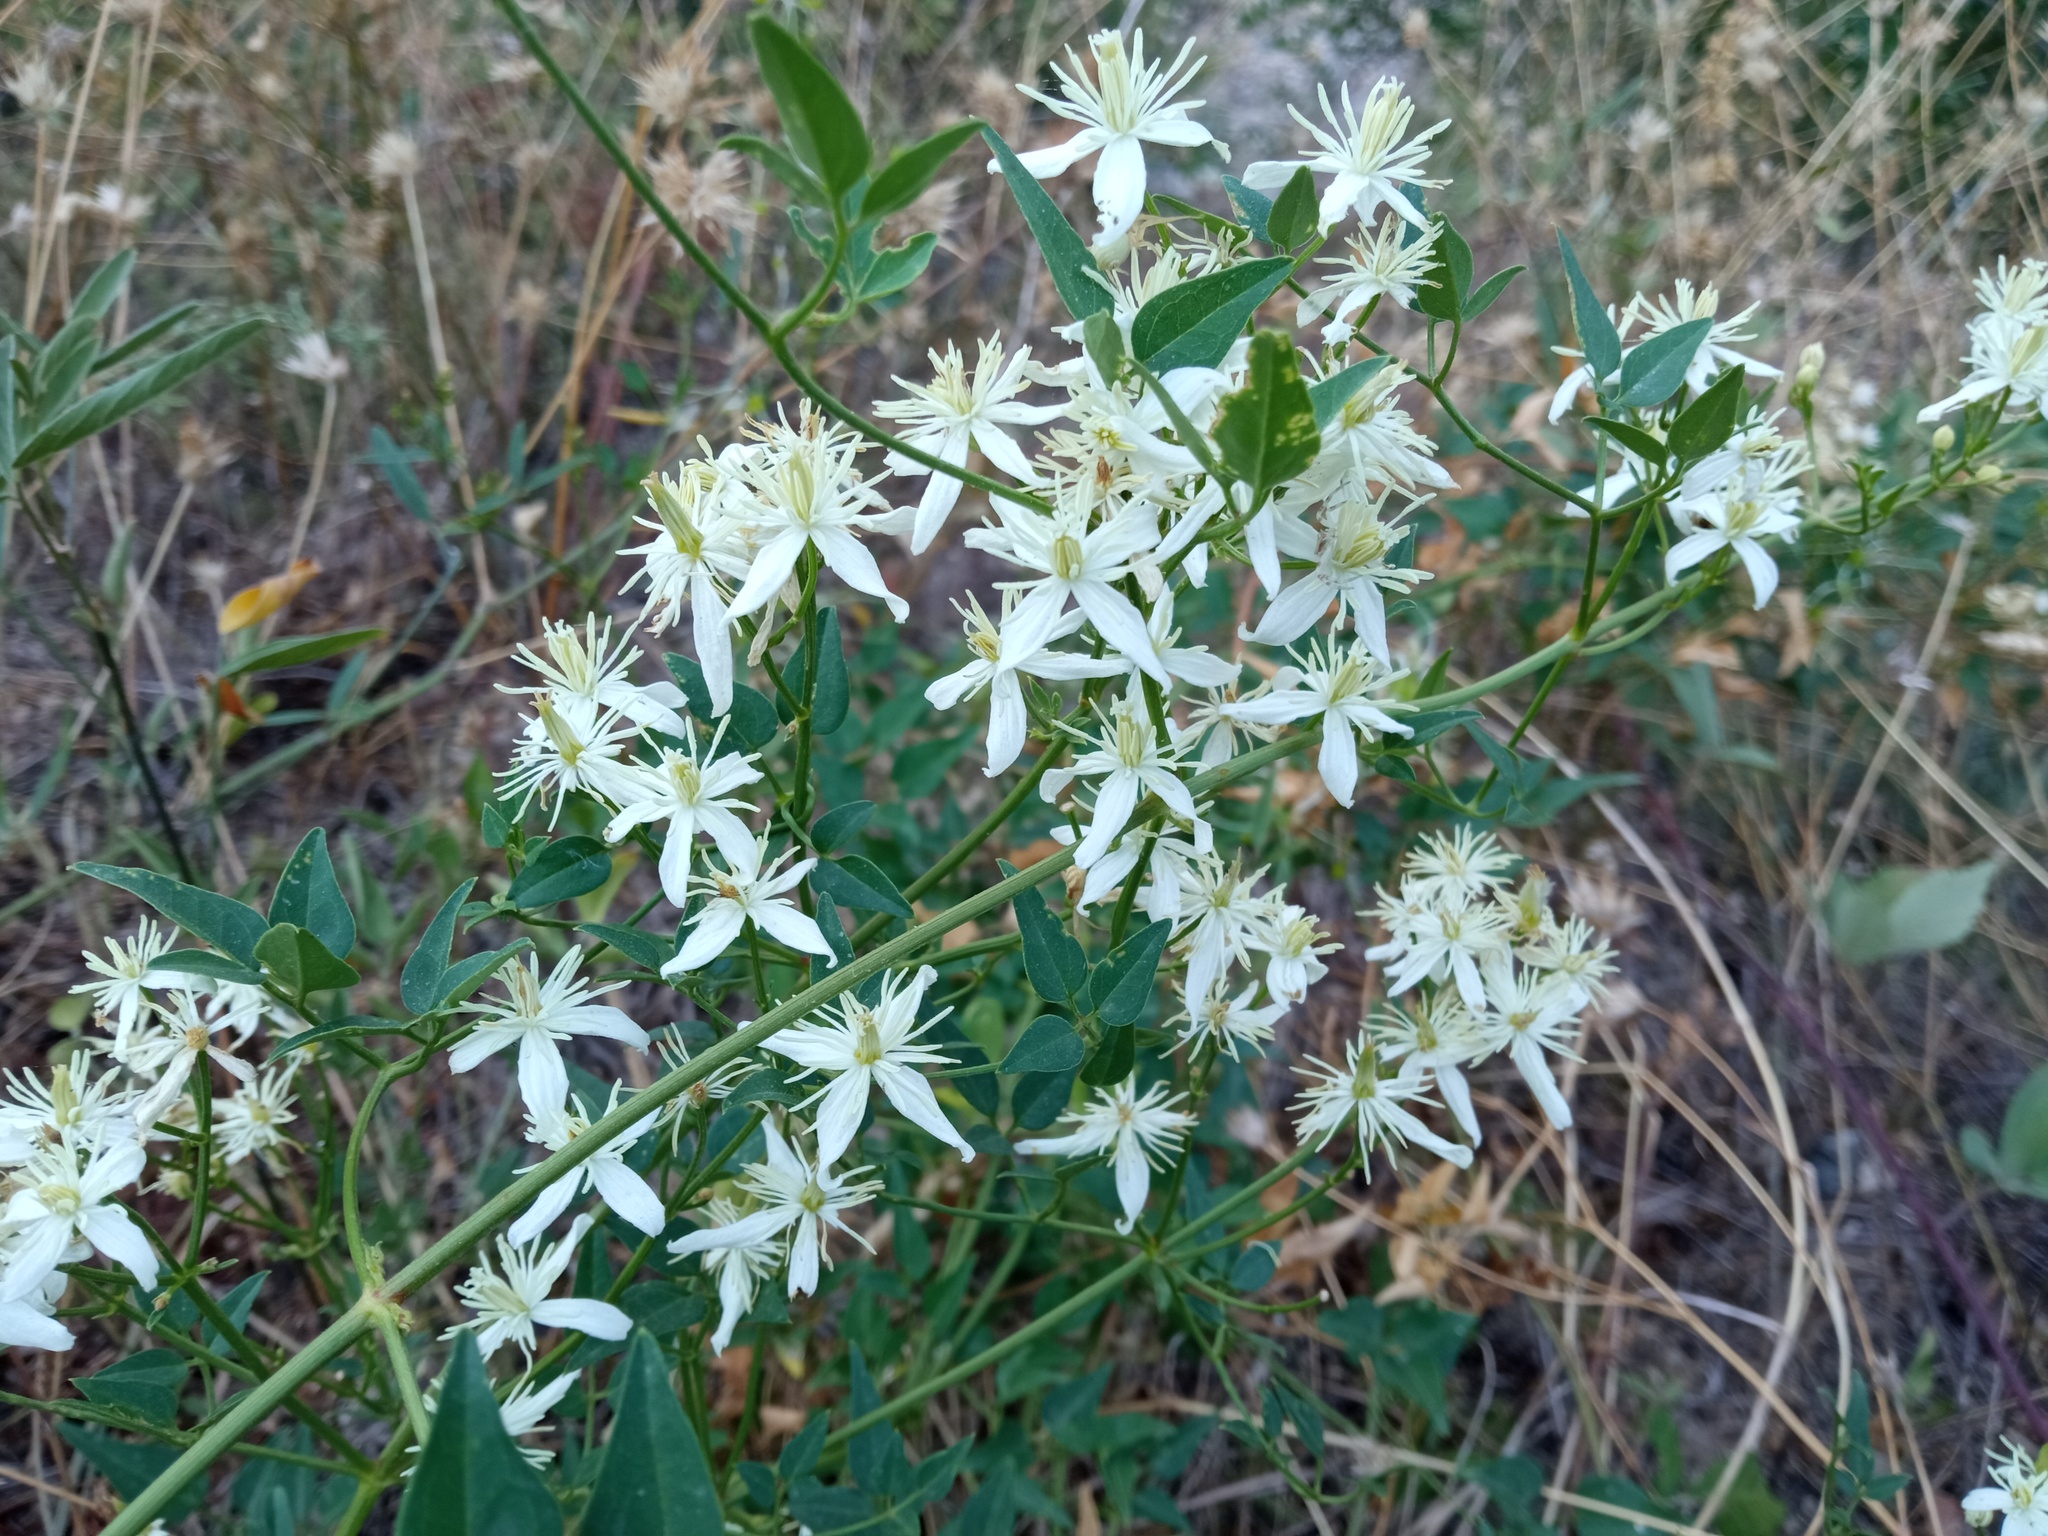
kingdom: Plantae
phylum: Tracheophyta
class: Magnoliopsida
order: Ranunculales
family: Ranunculaceae
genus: Clematis
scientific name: Clematis flammula
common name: Virgin's-bower
